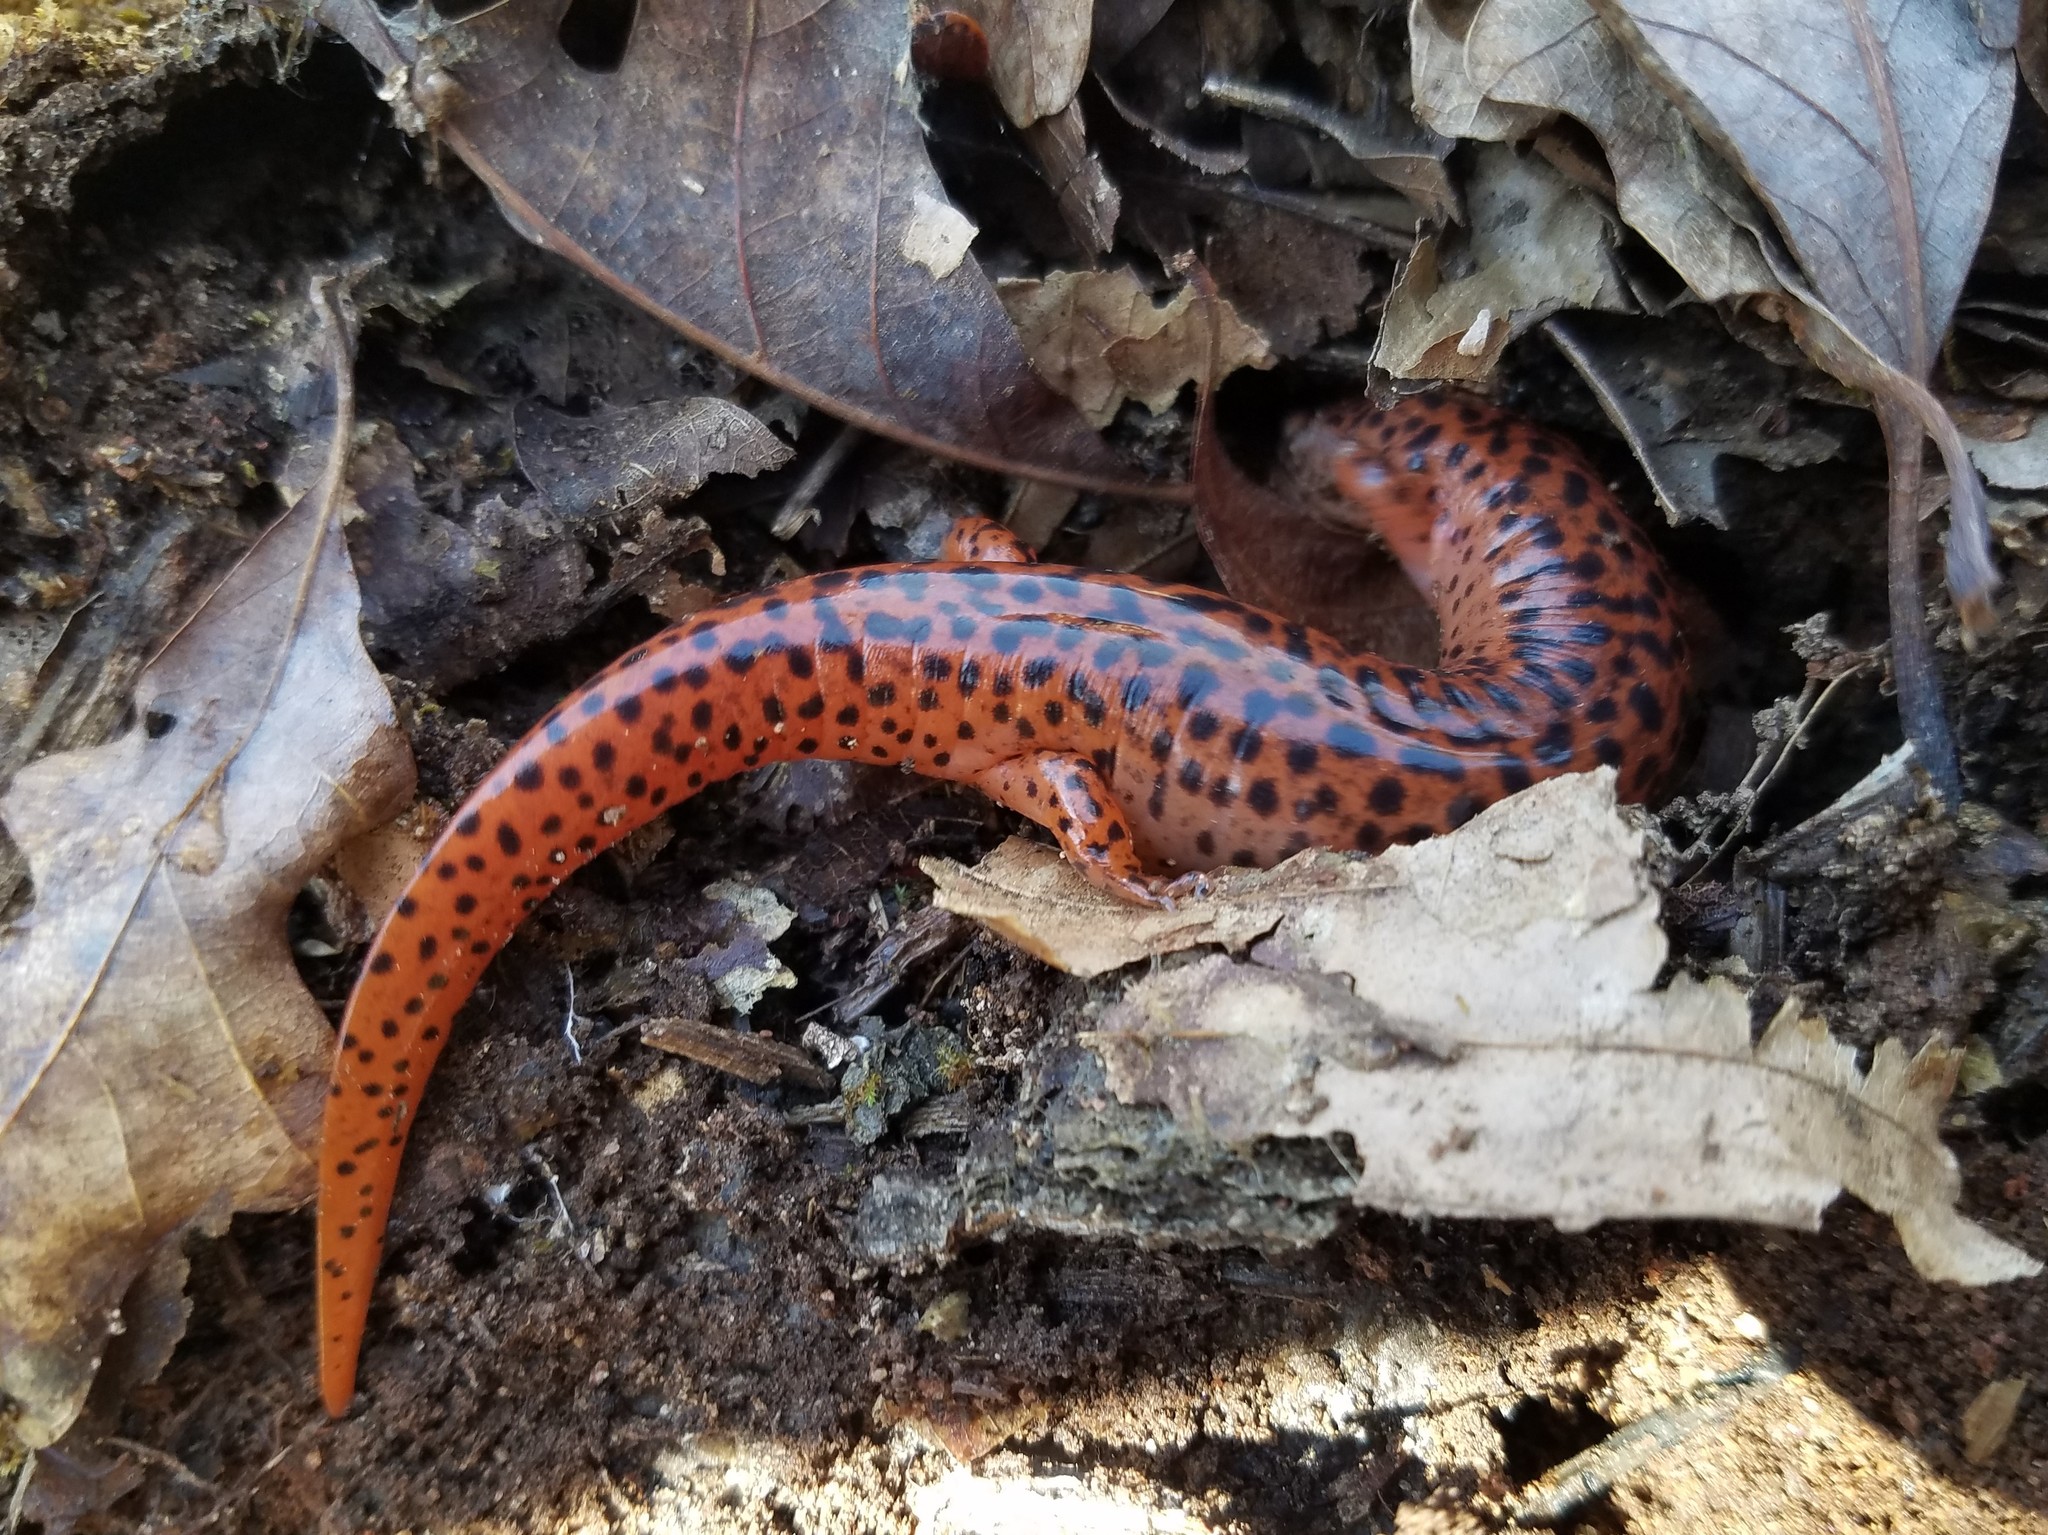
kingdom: Animalia
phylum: Chordata
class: Amphibia
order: Caudata
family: Plethodontidae
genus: Pseudotriton
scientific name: Pseudotriton ruber
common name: Red salamander
